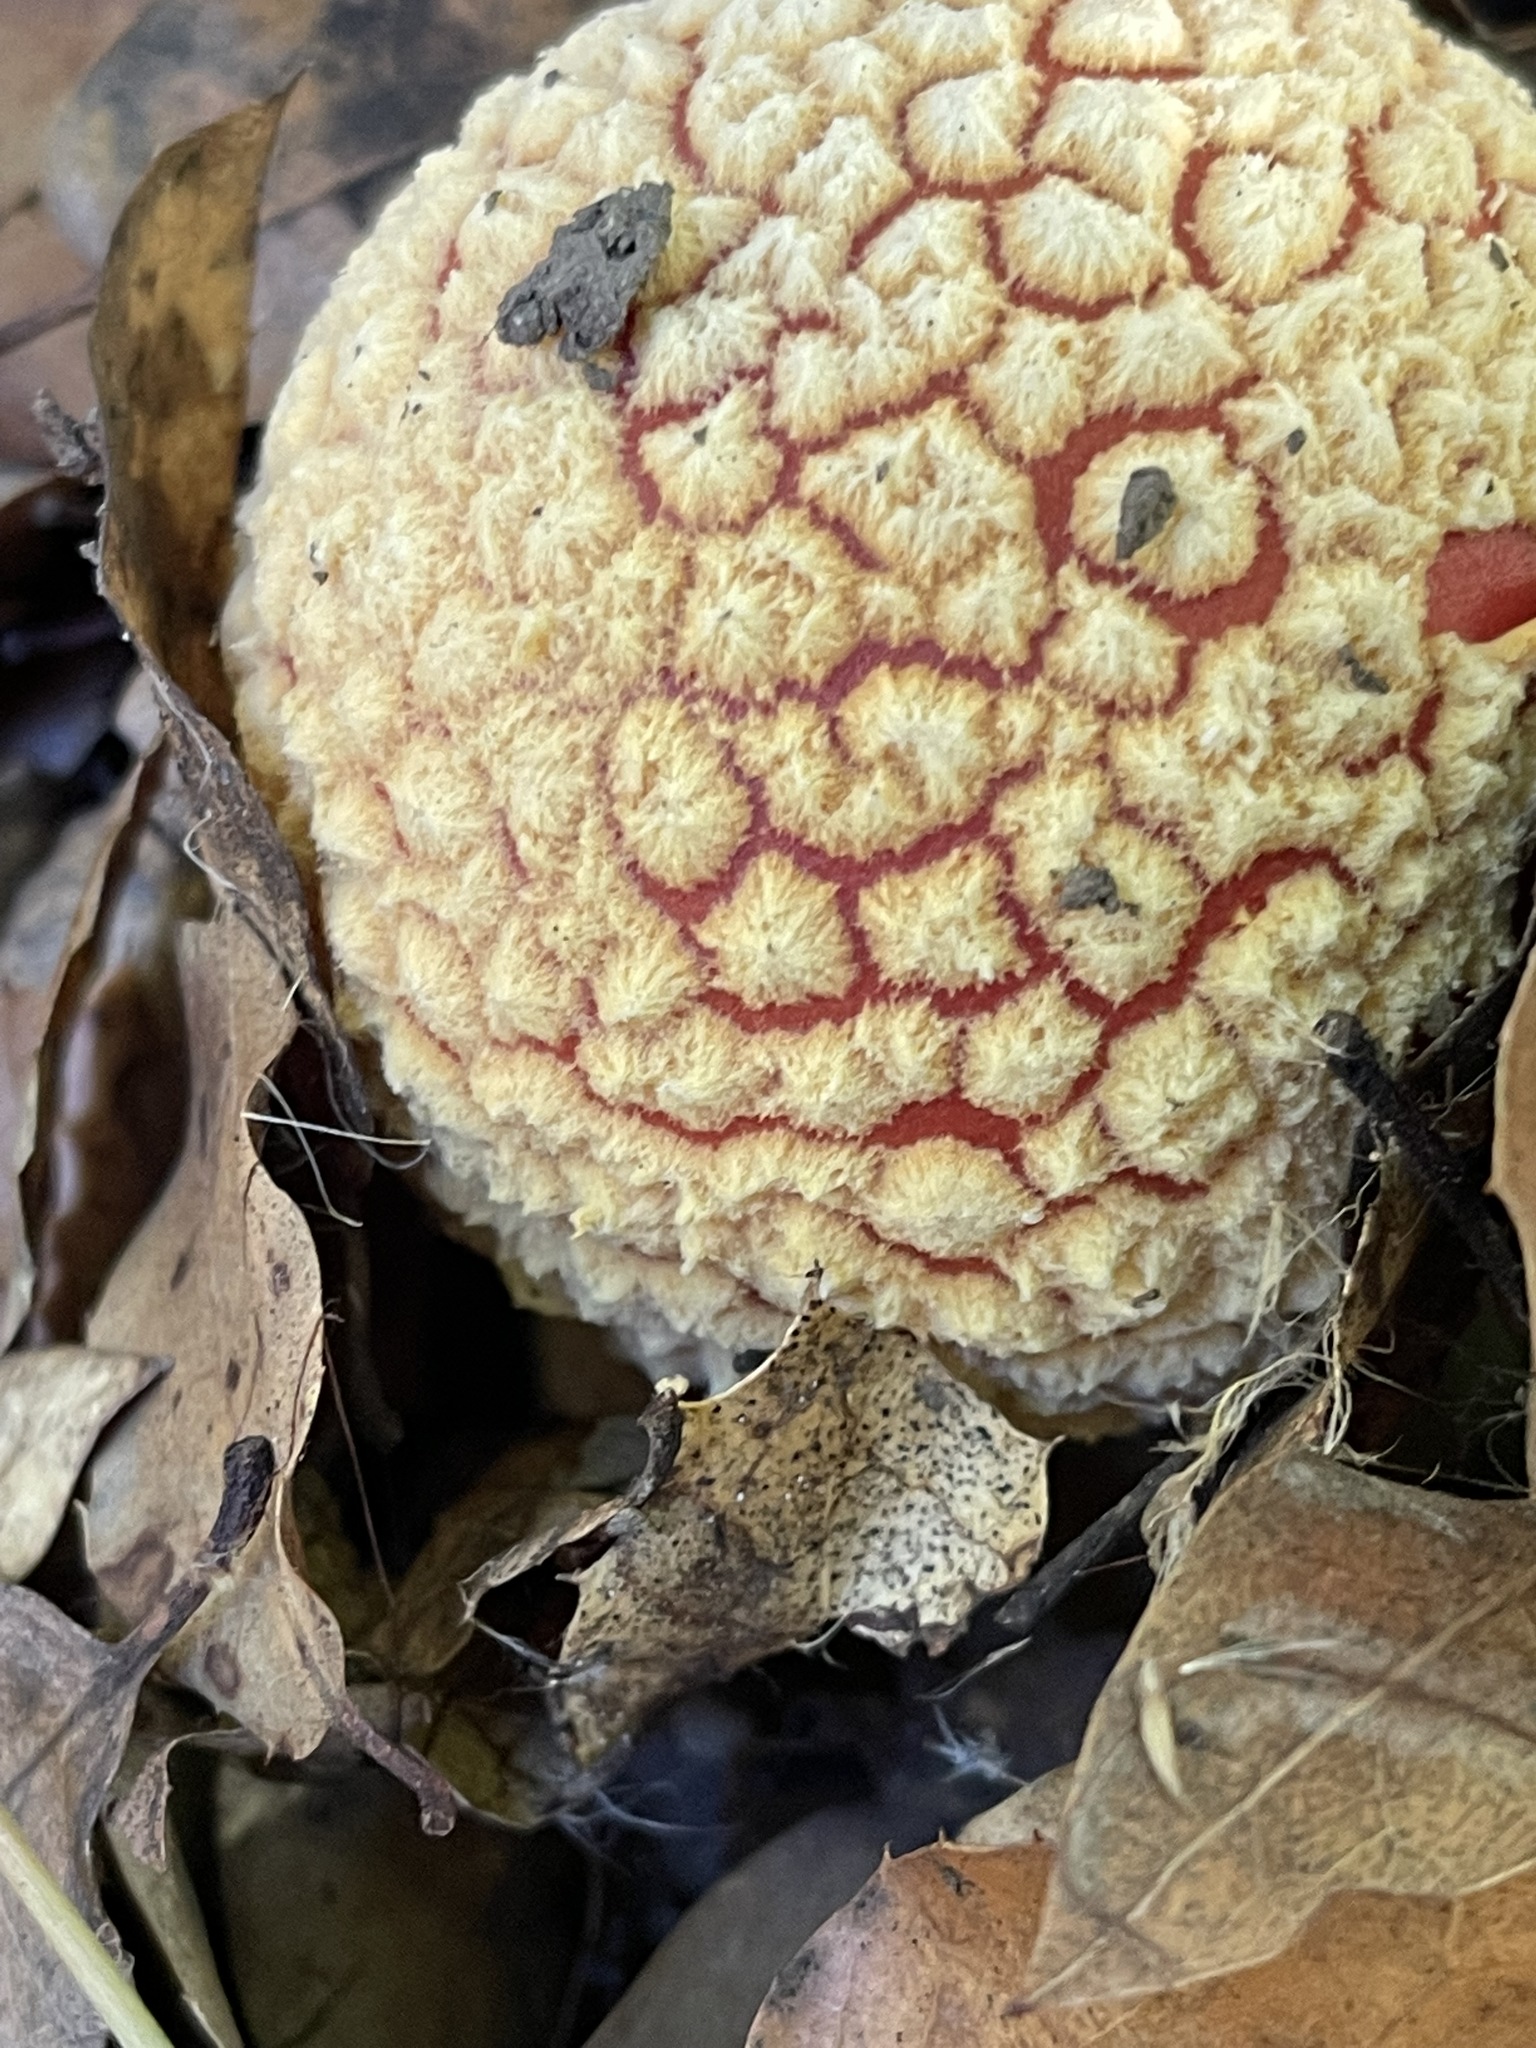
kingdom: Fungi
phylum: Basidiomycota
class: Agaricomycetes
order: Agaricales
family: Amanitaceae
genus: Amanita
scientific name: Amanita muscaria
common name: Fly agaric
